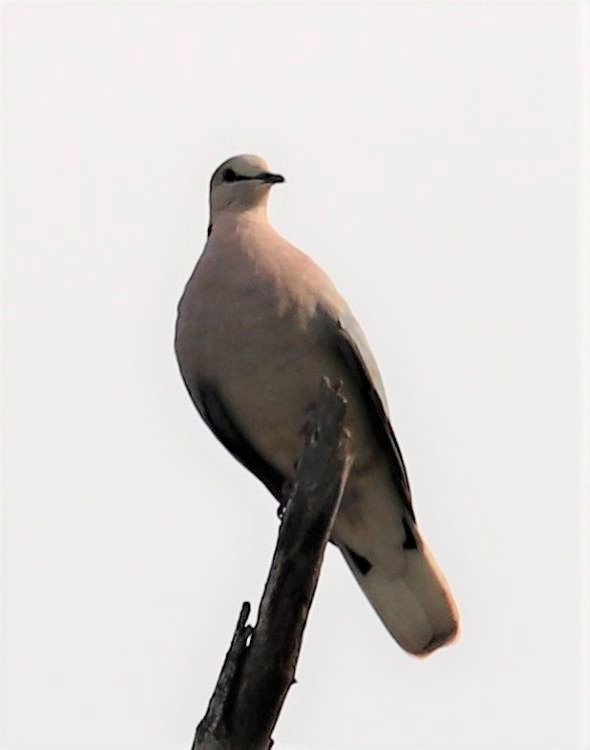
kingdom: Animalia
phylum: Chordata
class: Aves
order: Columbiformes
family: Columbidae
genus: Streptopelia
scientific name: Streptopelia capicola
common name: Ring-necked dove
